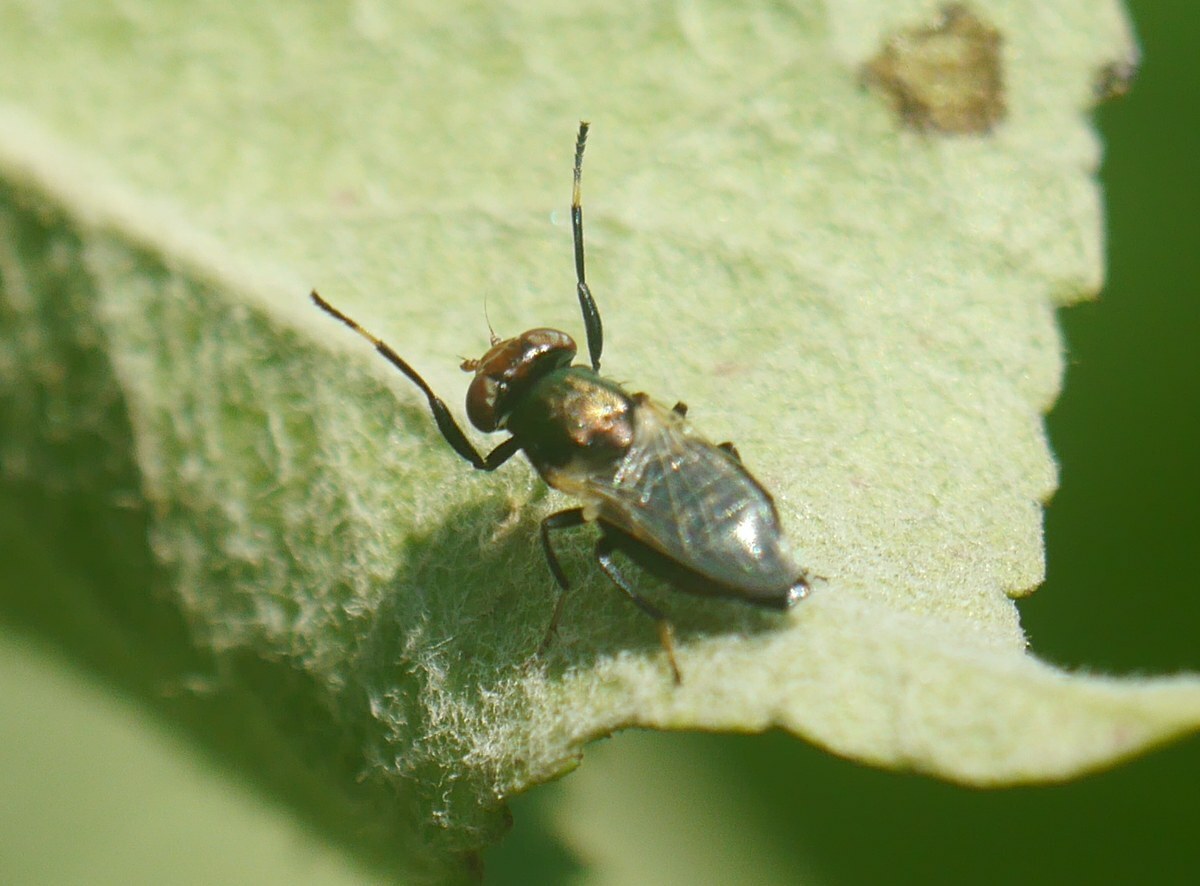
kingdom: Animalia
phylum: Arthropoda
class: Insecta
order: Diptera
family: Ulidiidae
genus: Physiphora
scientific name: Physiphora alceae
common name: Picture-winged fly
